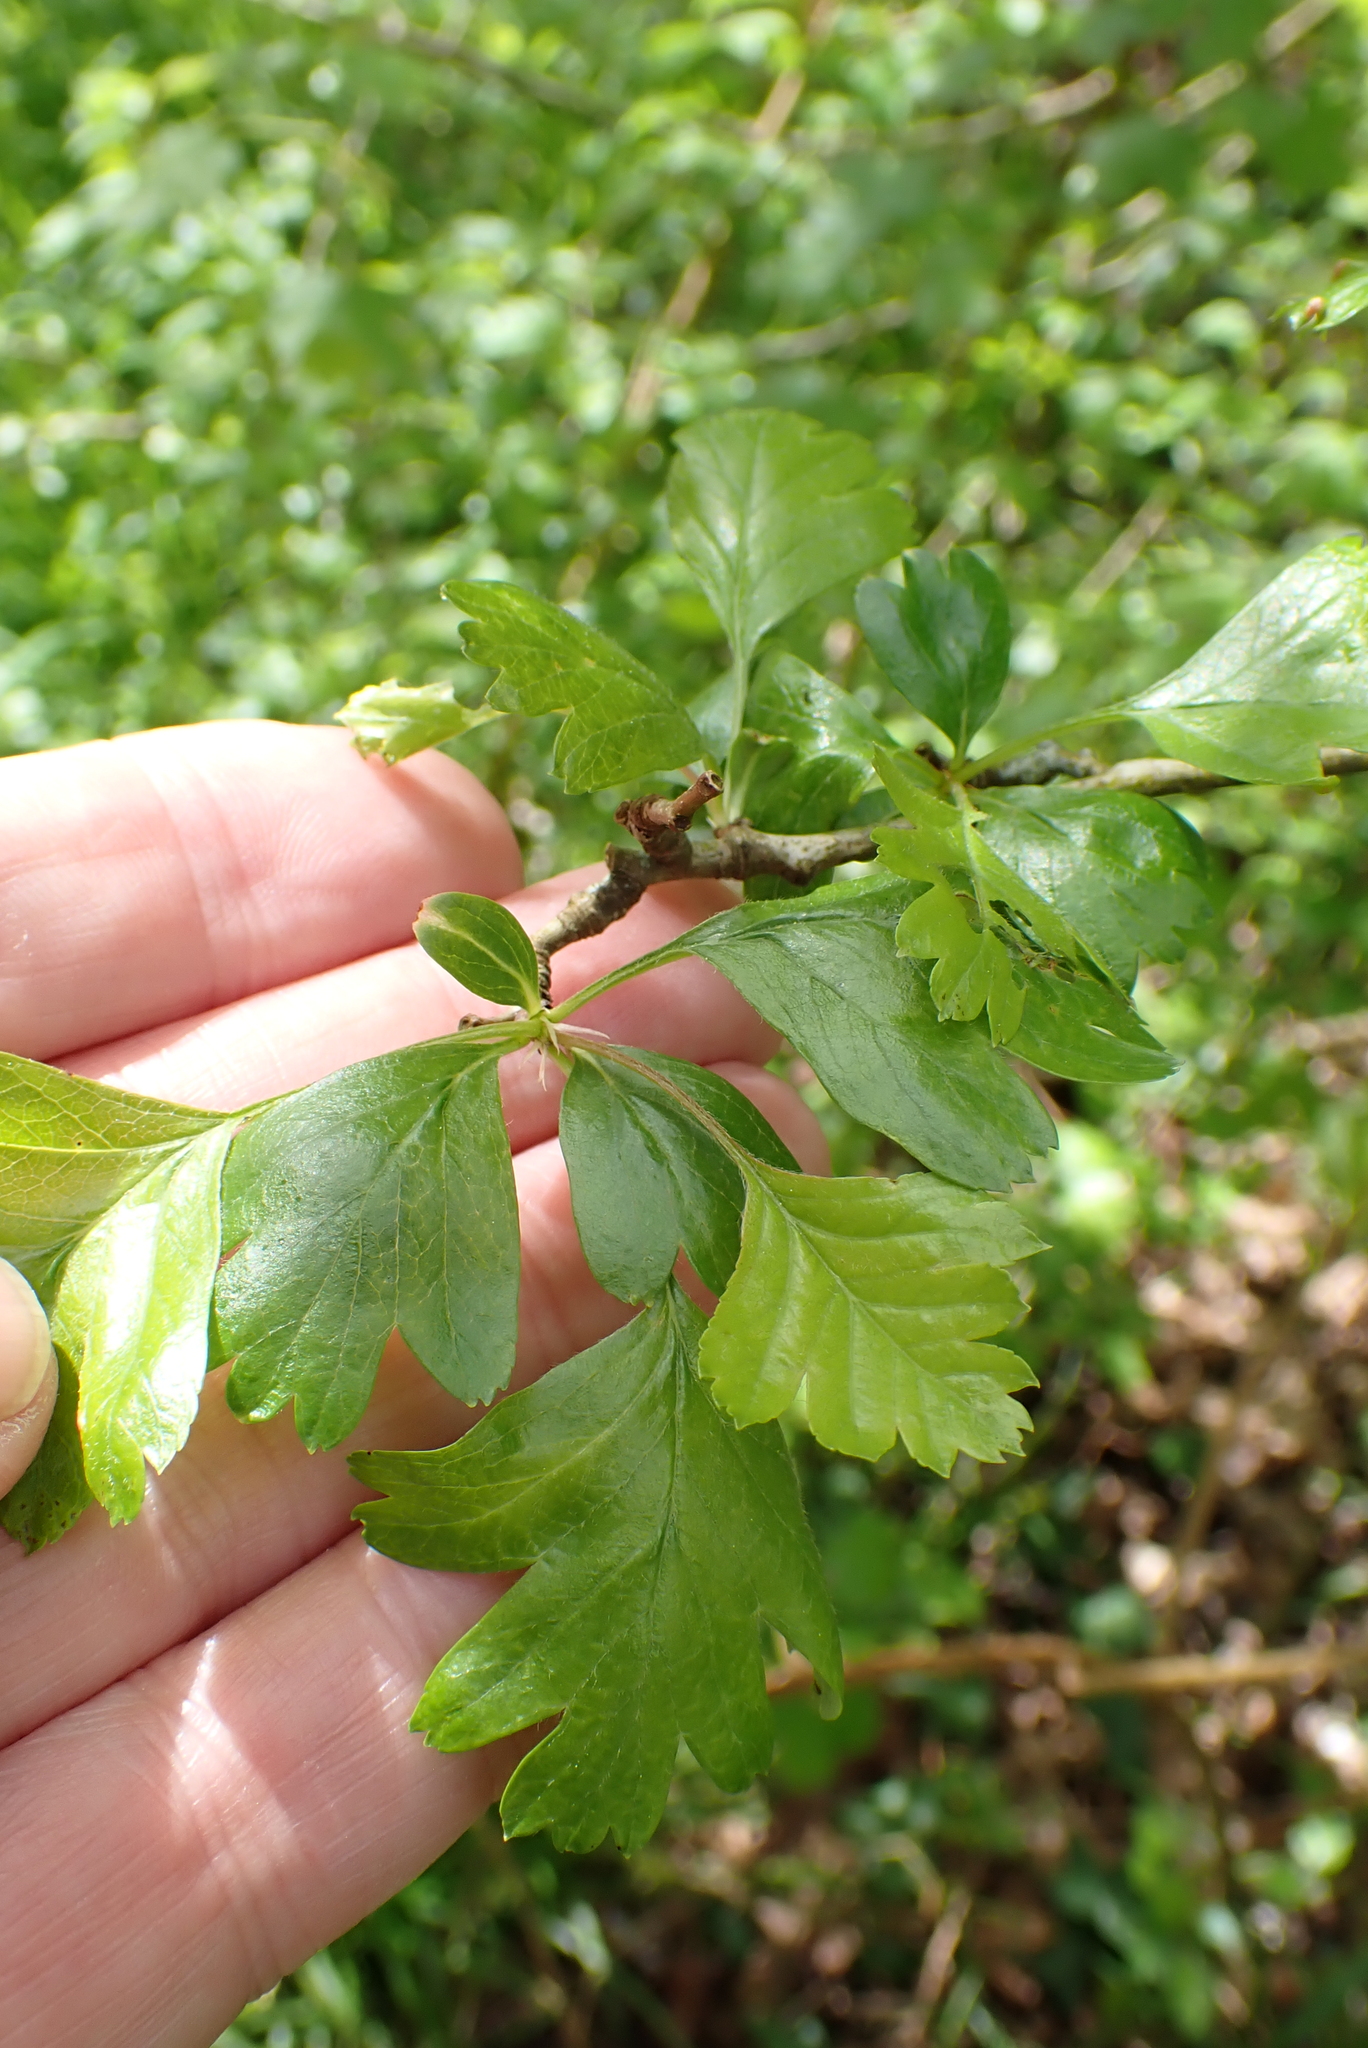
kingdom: Plantae
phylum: Tracheophyta
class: Magnoliopsida
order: Rosales
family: Rosaceae
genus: Crataegus
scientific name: Crataegus monogyna
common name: Hawthorn
